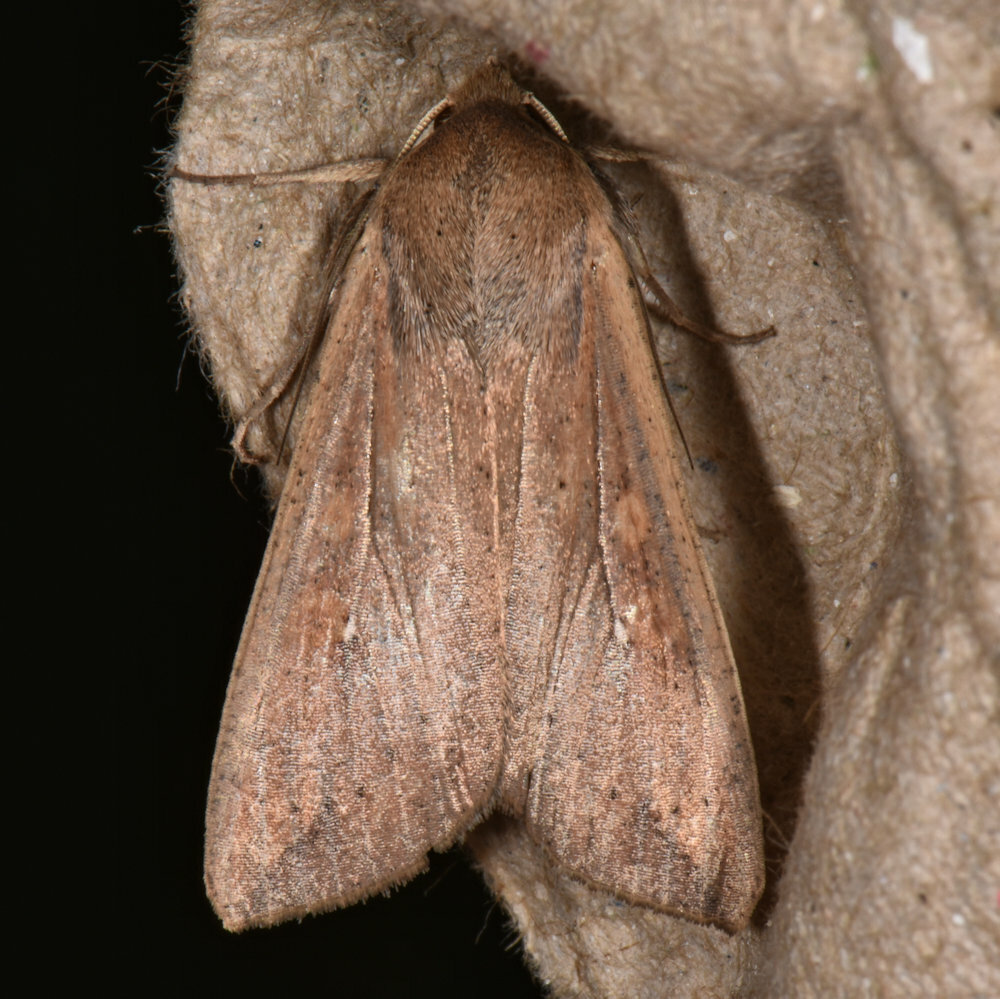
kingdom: Animalia
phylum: Arthropoda
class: Insecta
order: Lepidoptera
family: Noctuidae
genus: Mythimna
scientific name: Mythimna unipuncta
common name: White-speck
